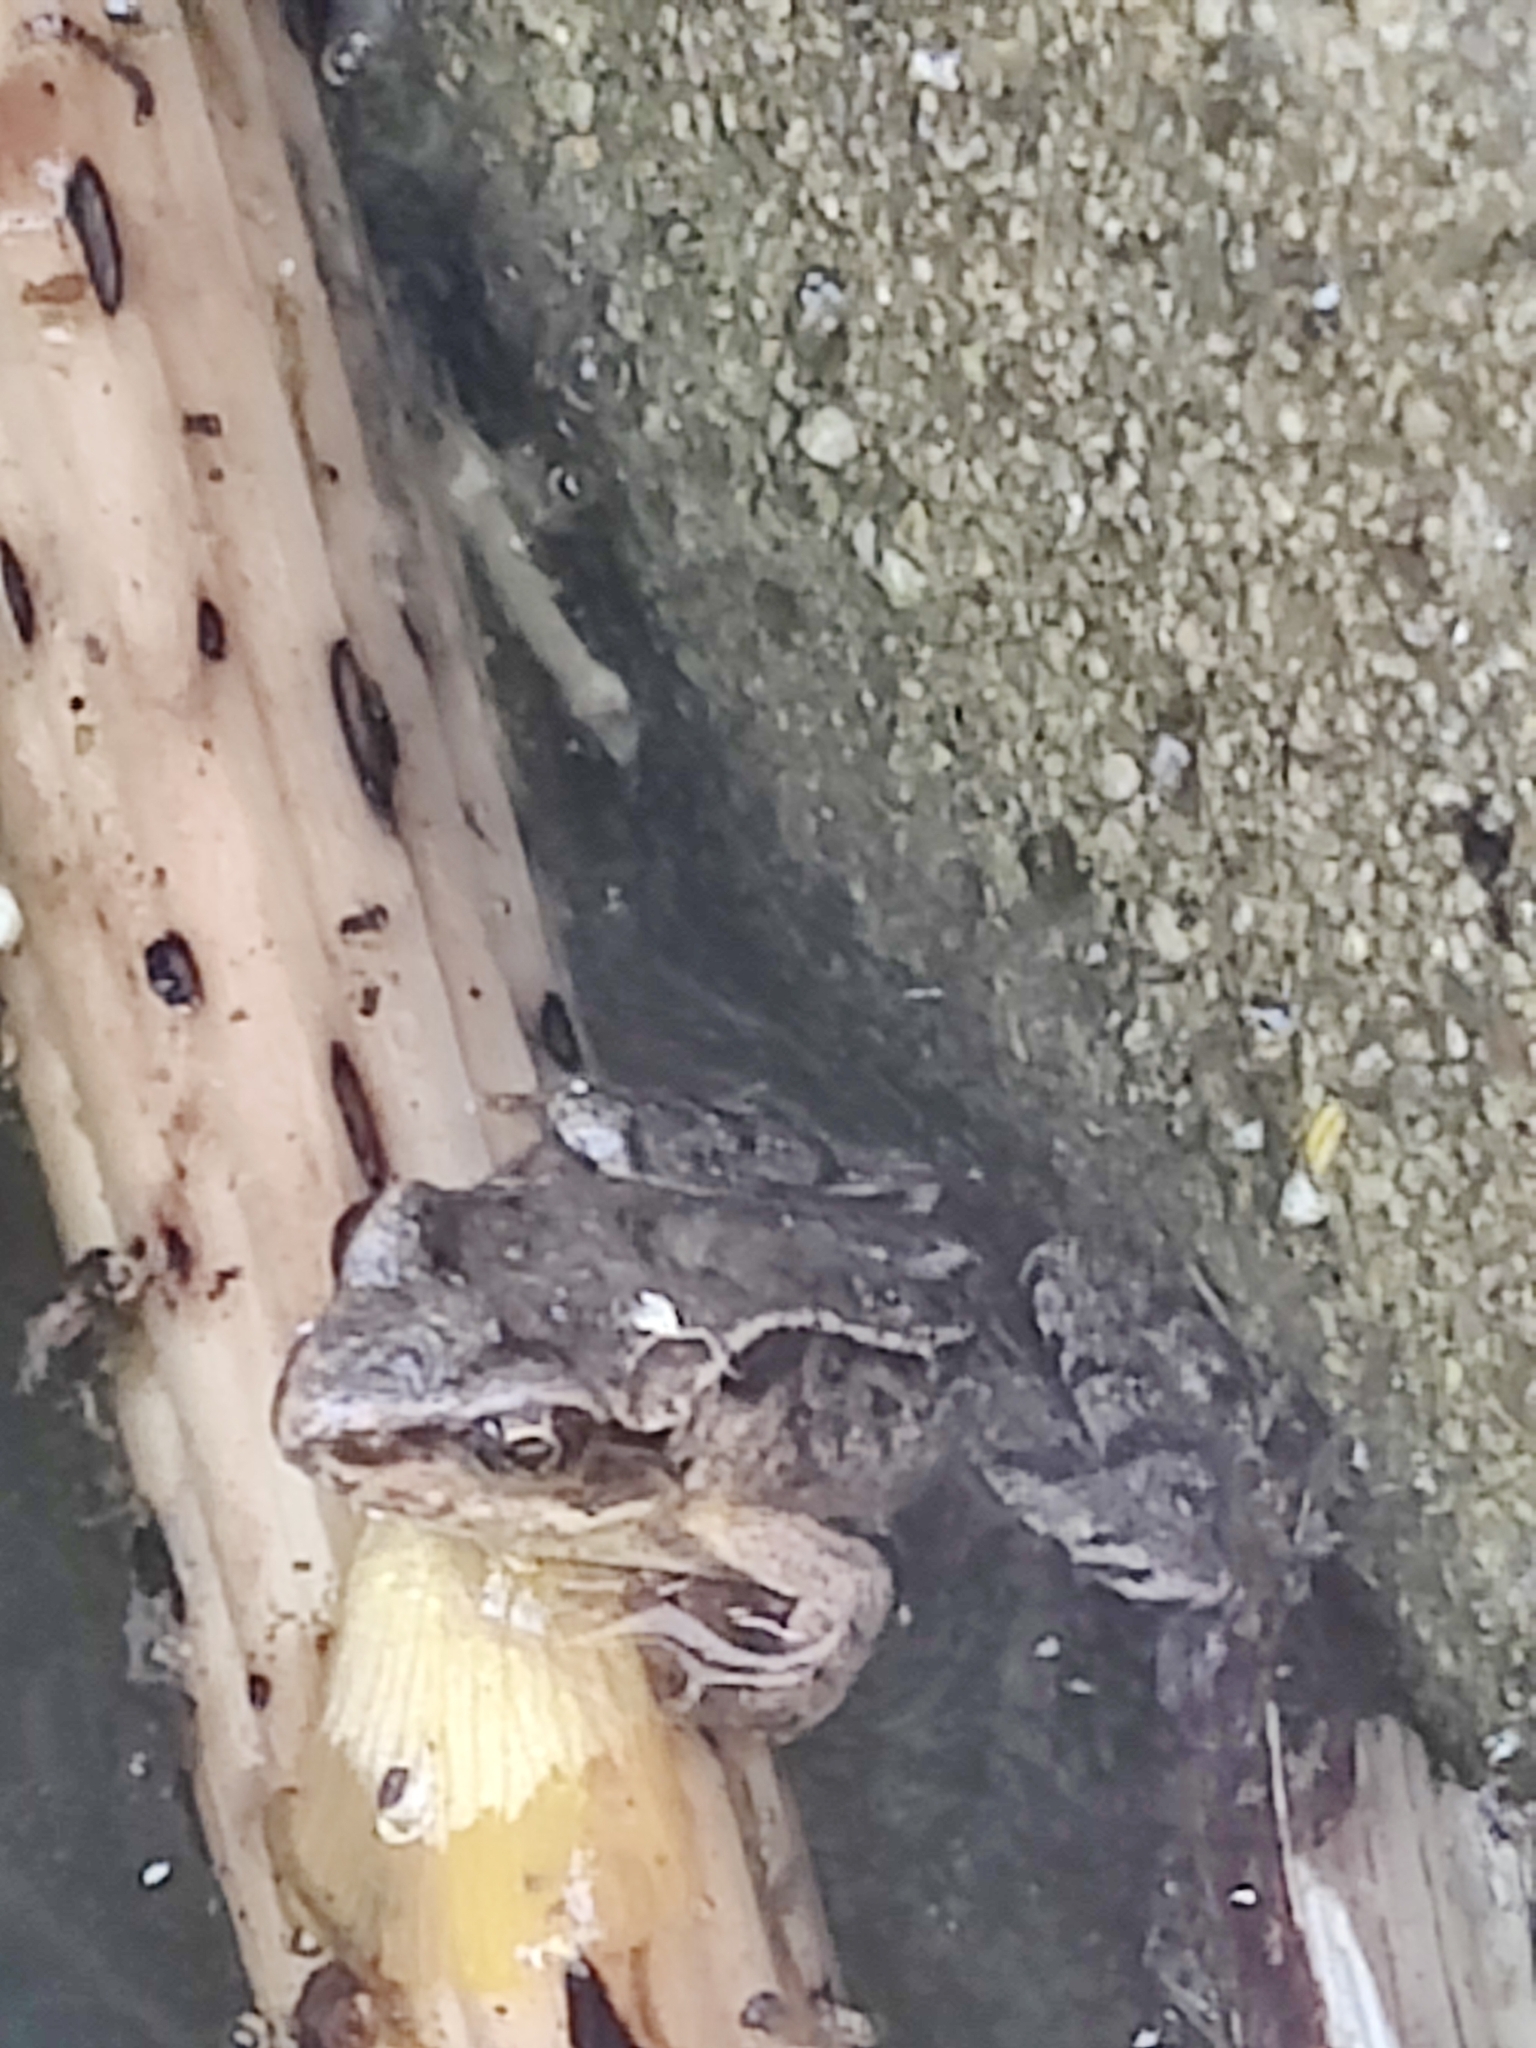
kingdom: Animalia
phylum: Chordata
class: Amphibia
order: Anura
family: Ranidae
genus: Rana
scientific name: Rana temporaria
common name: Common frog
